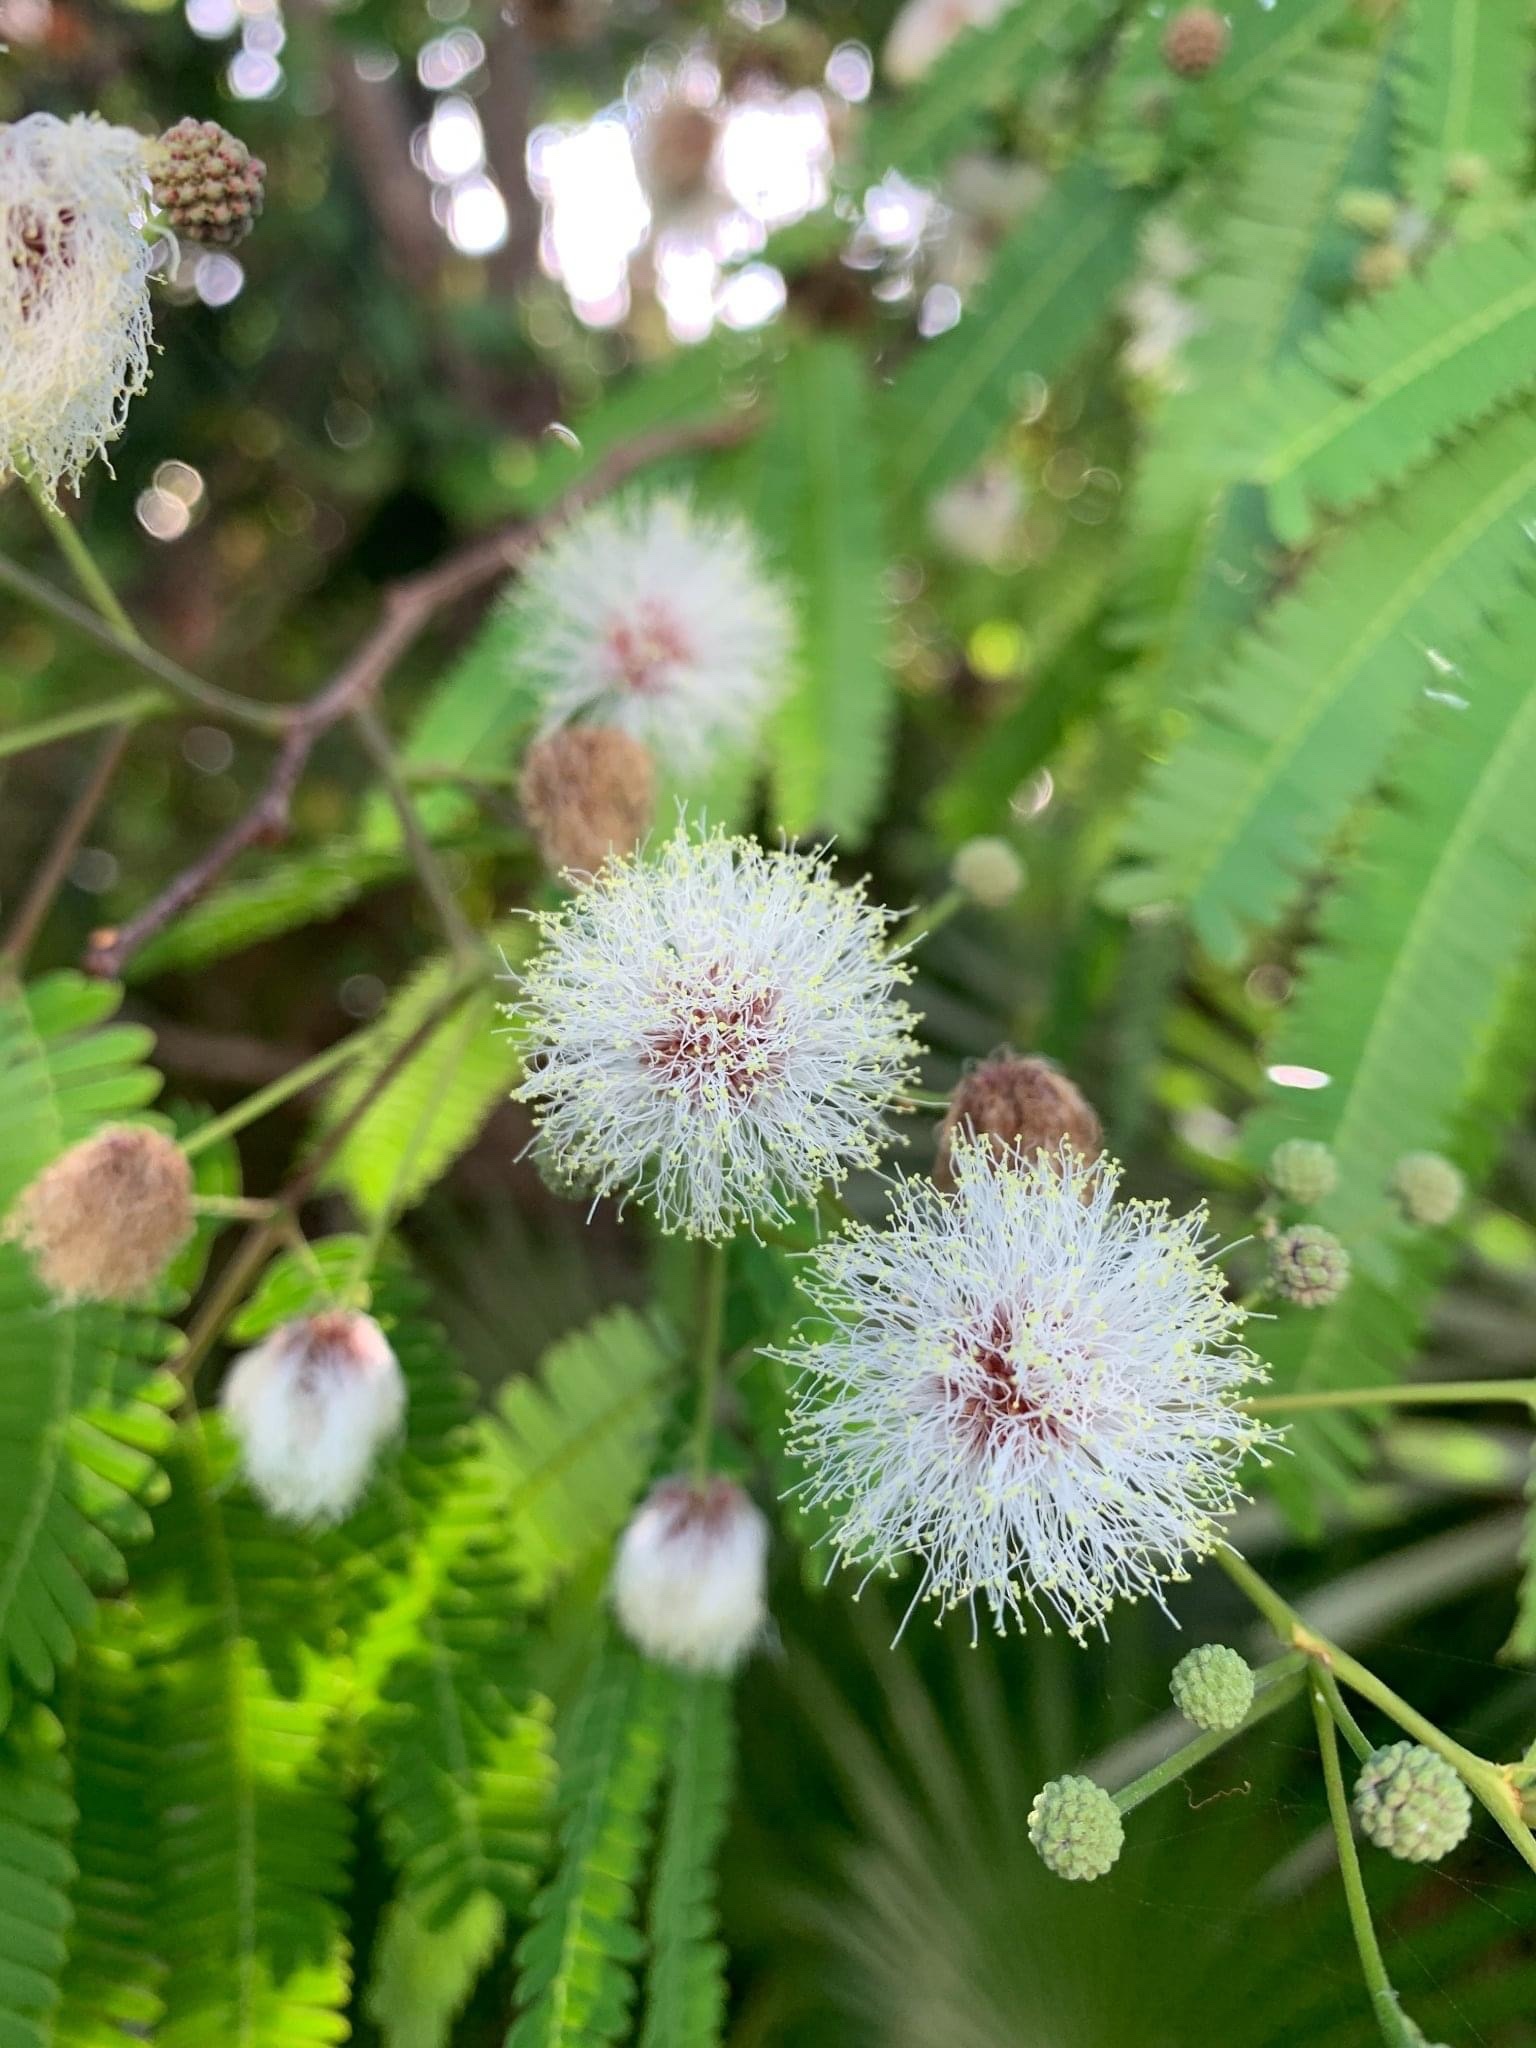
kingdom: Plantae
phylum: Tracheophyta
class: Magnoliopsida
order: Fabales
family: Fabaceae
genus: Lysiloma
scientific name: Lysiloma latisiliquum
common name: Wild tamarind
